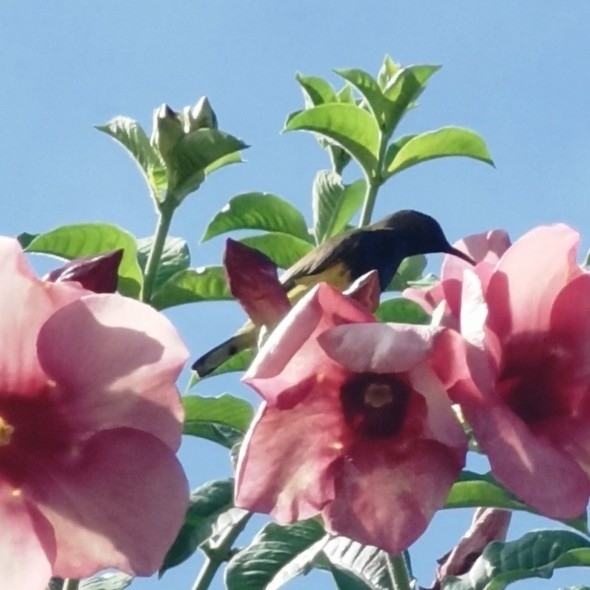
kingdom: Animalia
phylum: Chordata
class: Aves
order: Passeriformes
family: Nectariniidae
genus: Cinnyris
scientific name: Cinnyris
